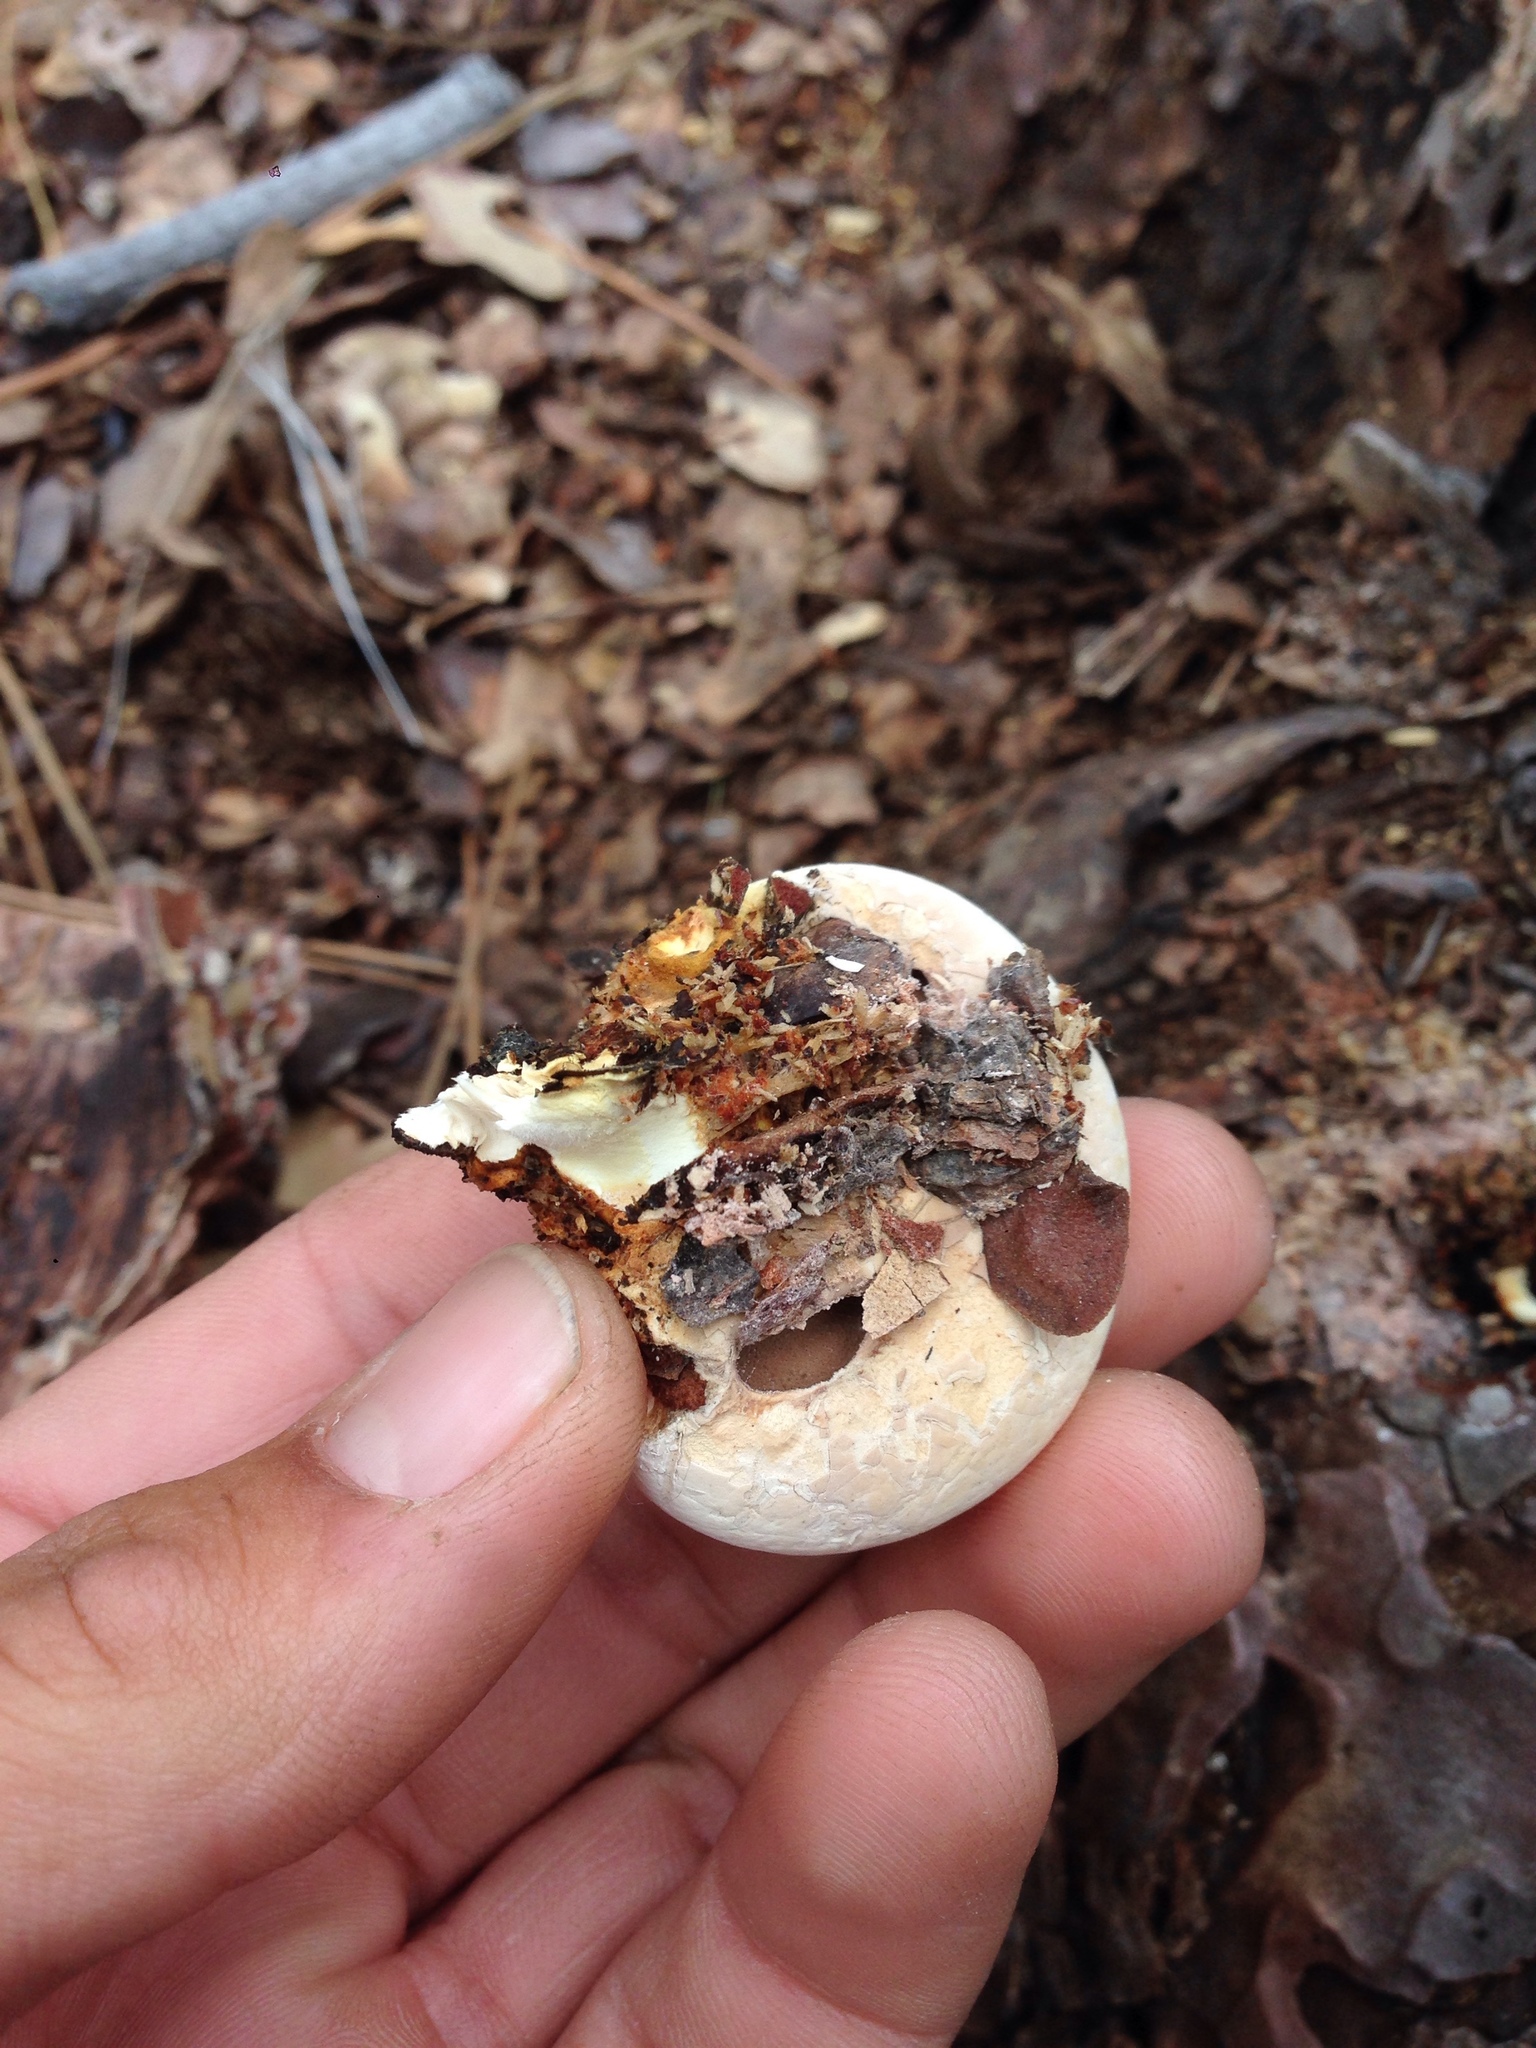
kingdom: Fungi
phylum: Basidiomycota
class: Agaricomycetes
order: Polyporales
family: Polyporaceae
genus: Cryptoporus
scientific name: Cryptoporus volvatus
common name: Veiled polypore
